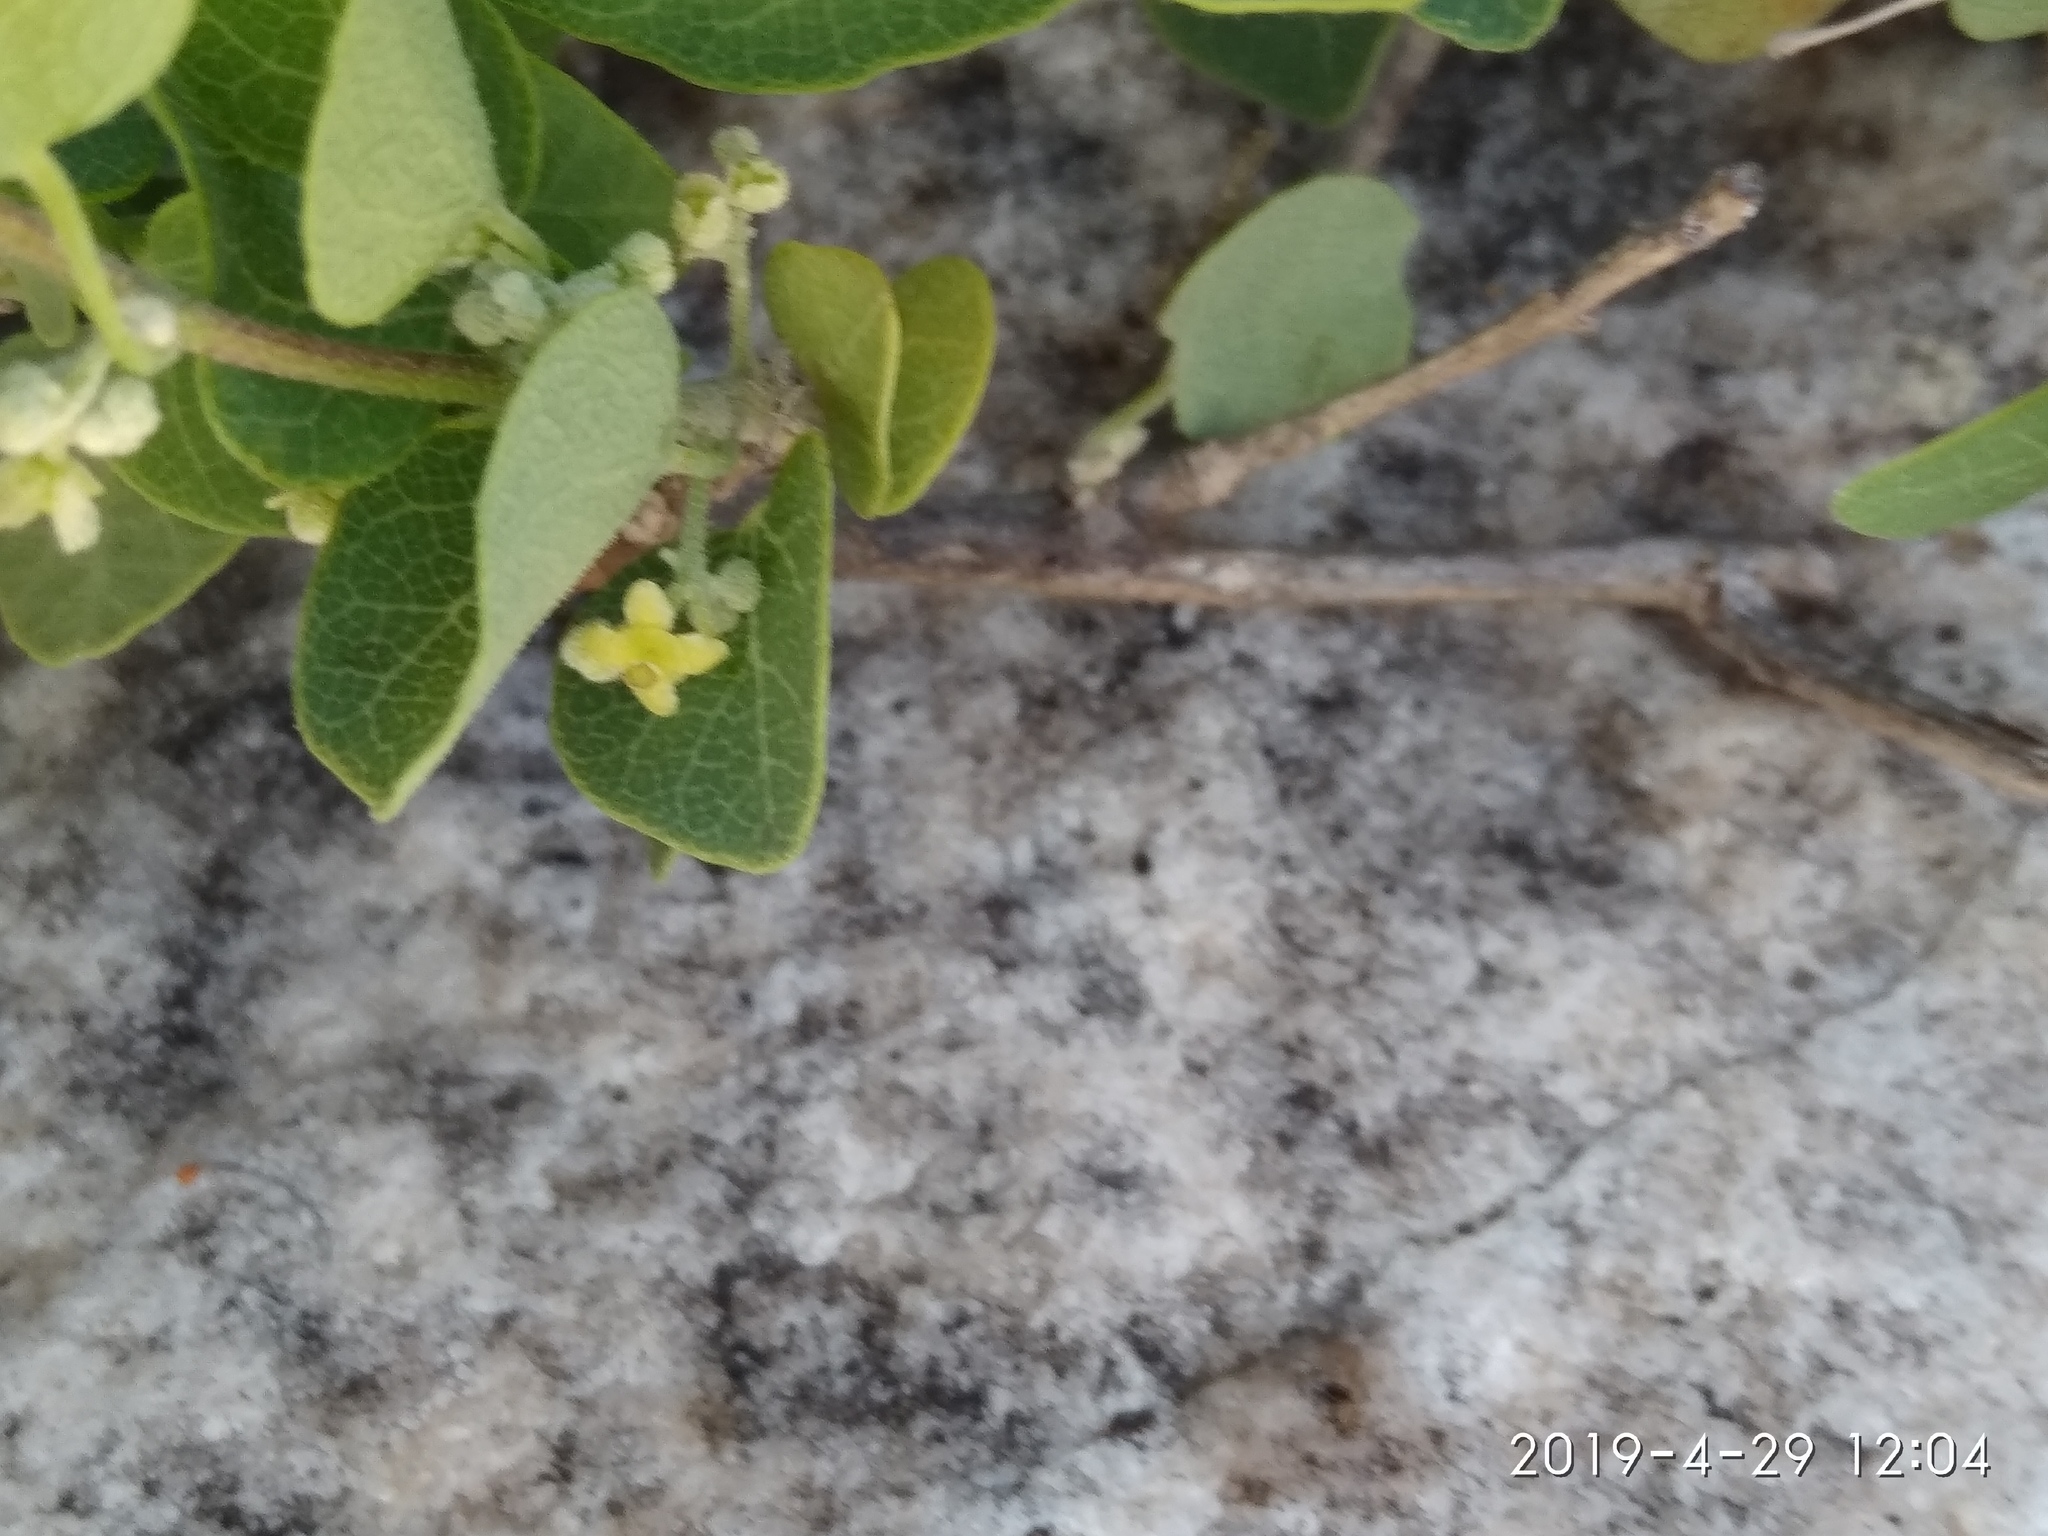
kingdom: Plantae
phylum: Tracheophyta
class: Magnoliopsida
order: Ranunculales
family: Menispermaceae
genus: Cissampelos
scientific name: Cissampelos capensis
